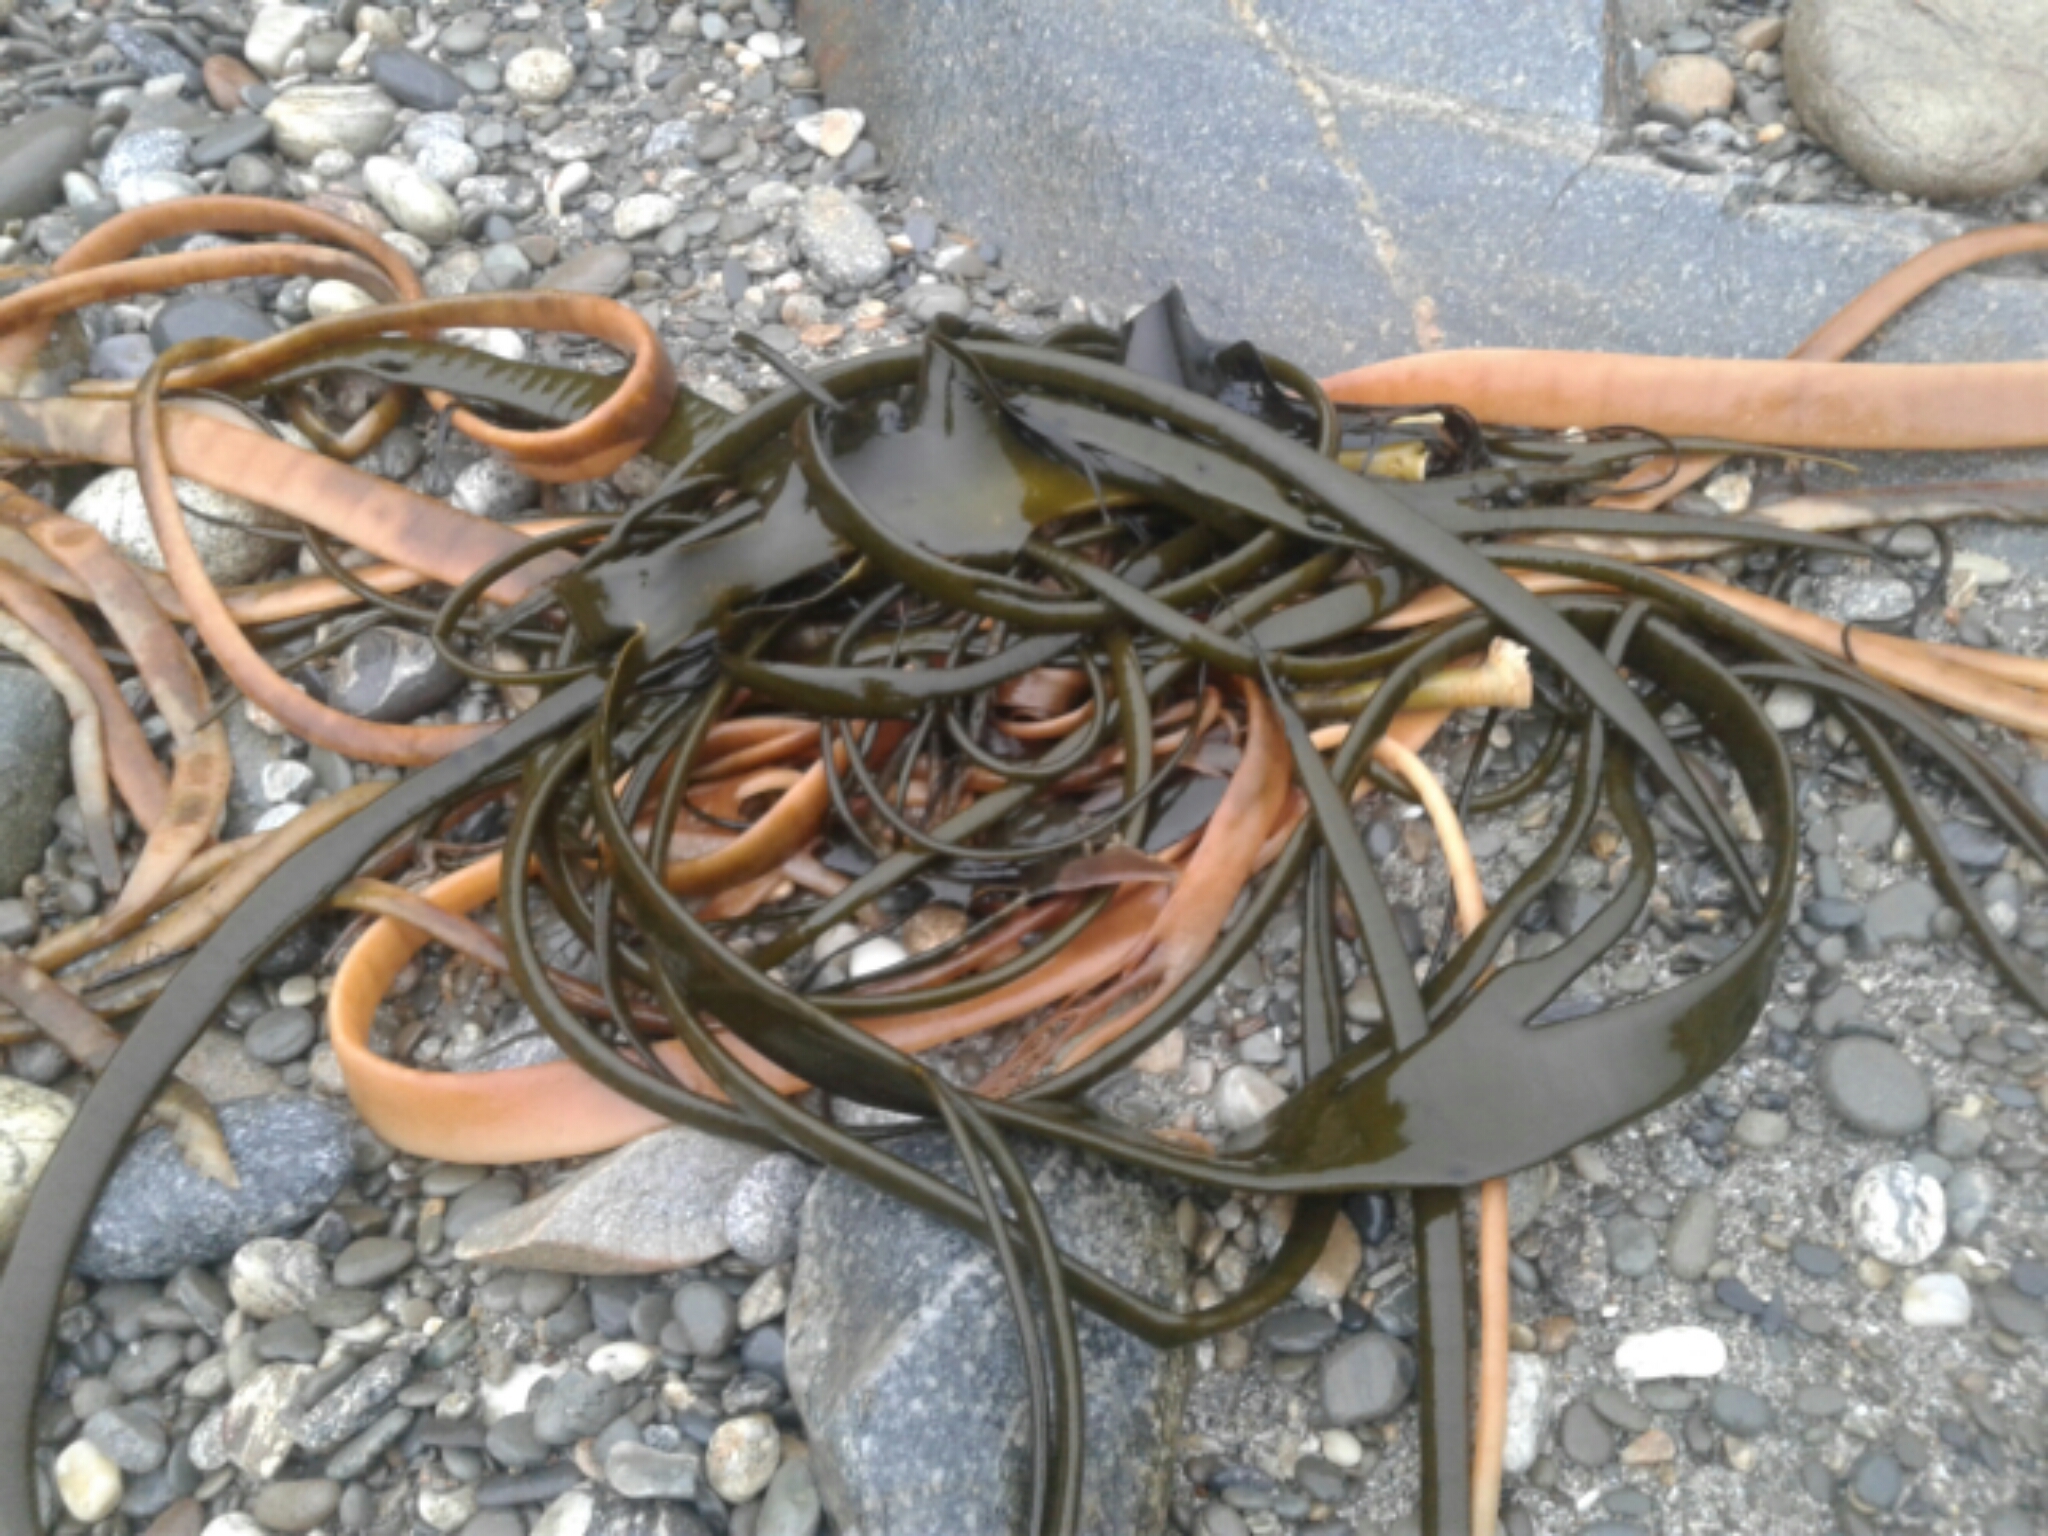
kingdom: Chromista
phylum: Ochrophyta
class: Phaeophyceae
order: Fucales
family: Durvillaeaceae
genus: Durvillaea
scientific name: Durvillaea antarctica
